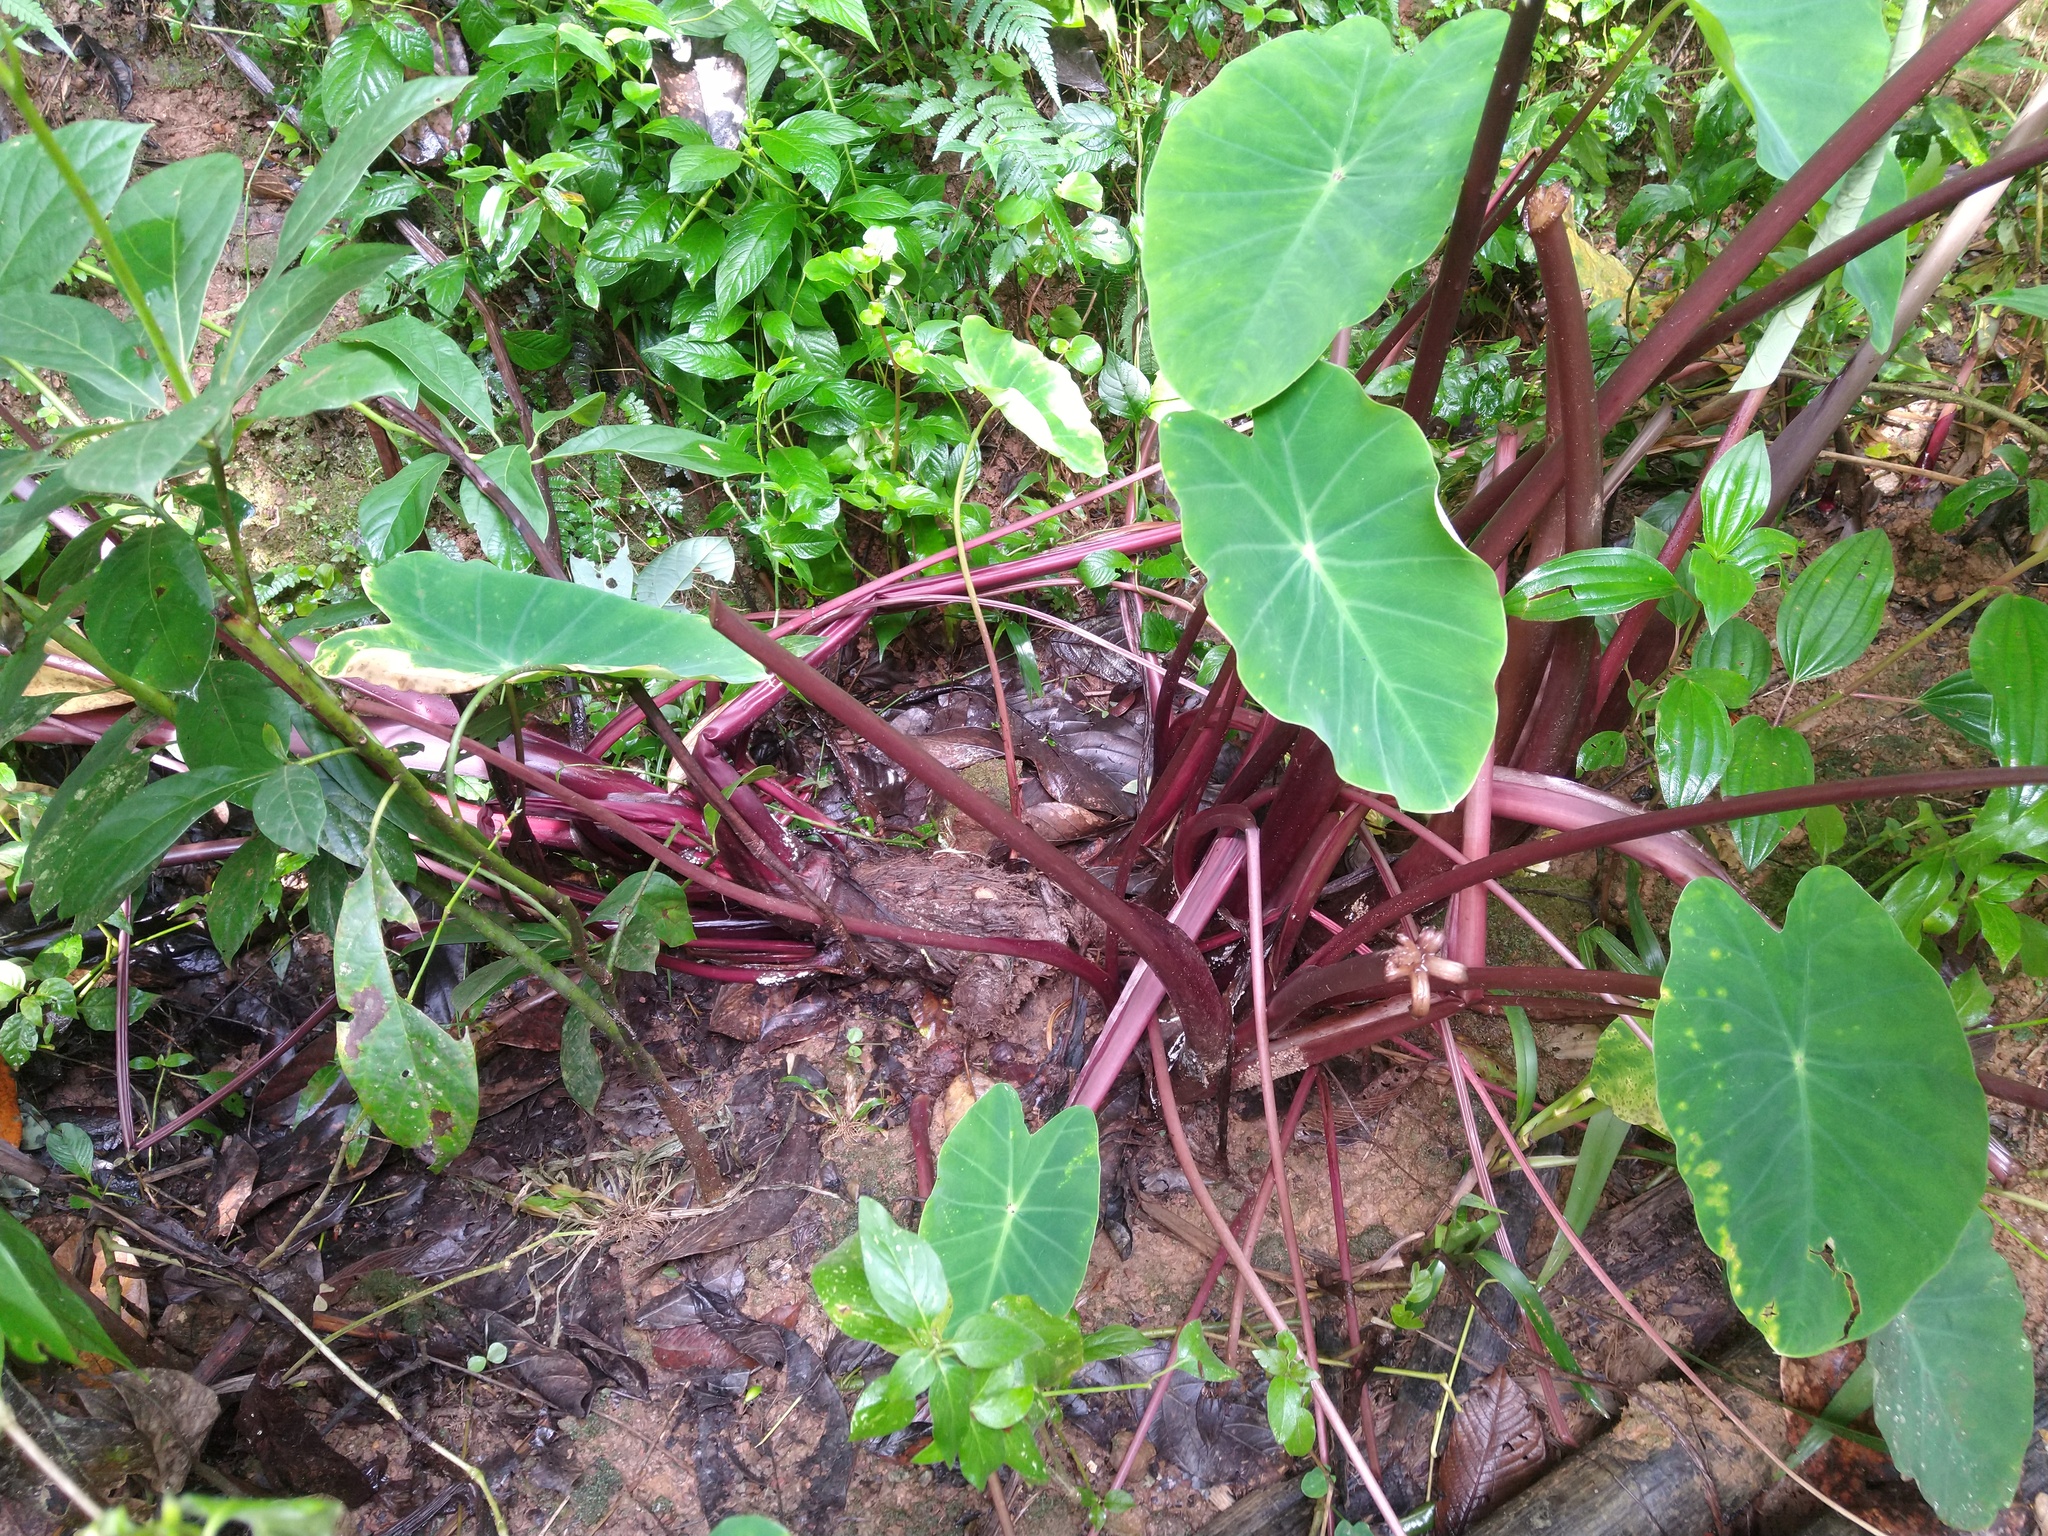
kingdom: Plantae
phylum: Tracheophyta
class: Liliopsida
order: Alismatales
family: Araceae
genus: Colocasia
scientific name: Colocasia esculenta
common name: Taro
